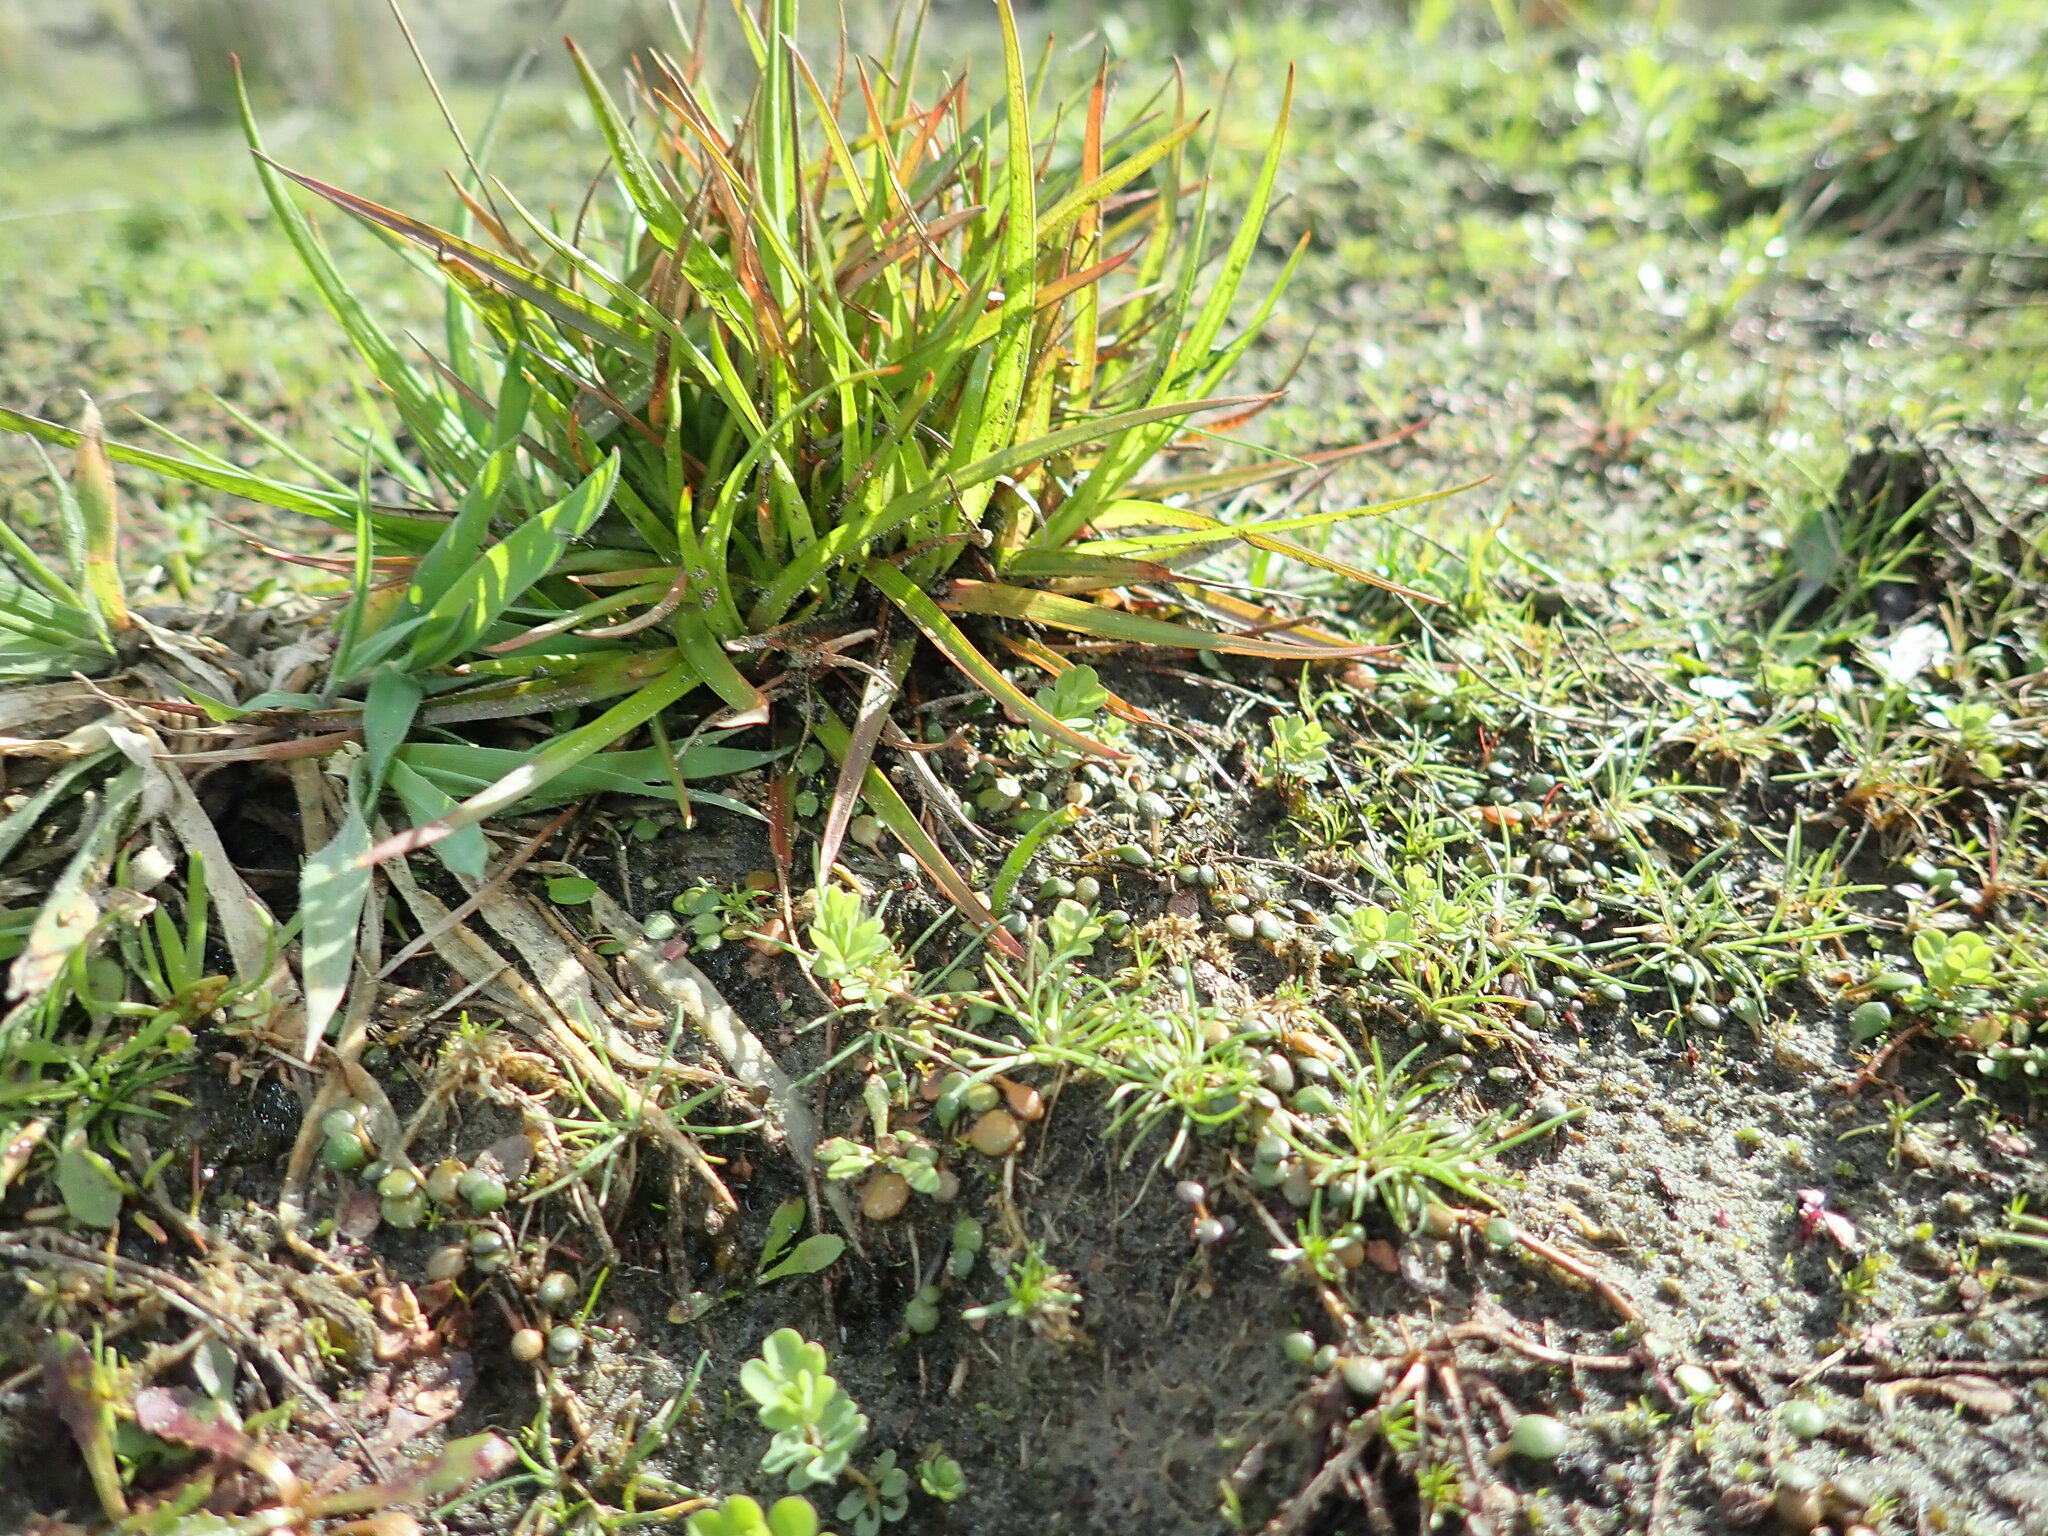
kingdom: Plantae
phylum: Tracheophyta
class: Liliopsida
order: Poales
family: Juncaceae
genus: Juncus
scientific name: Juncus caespiticius
